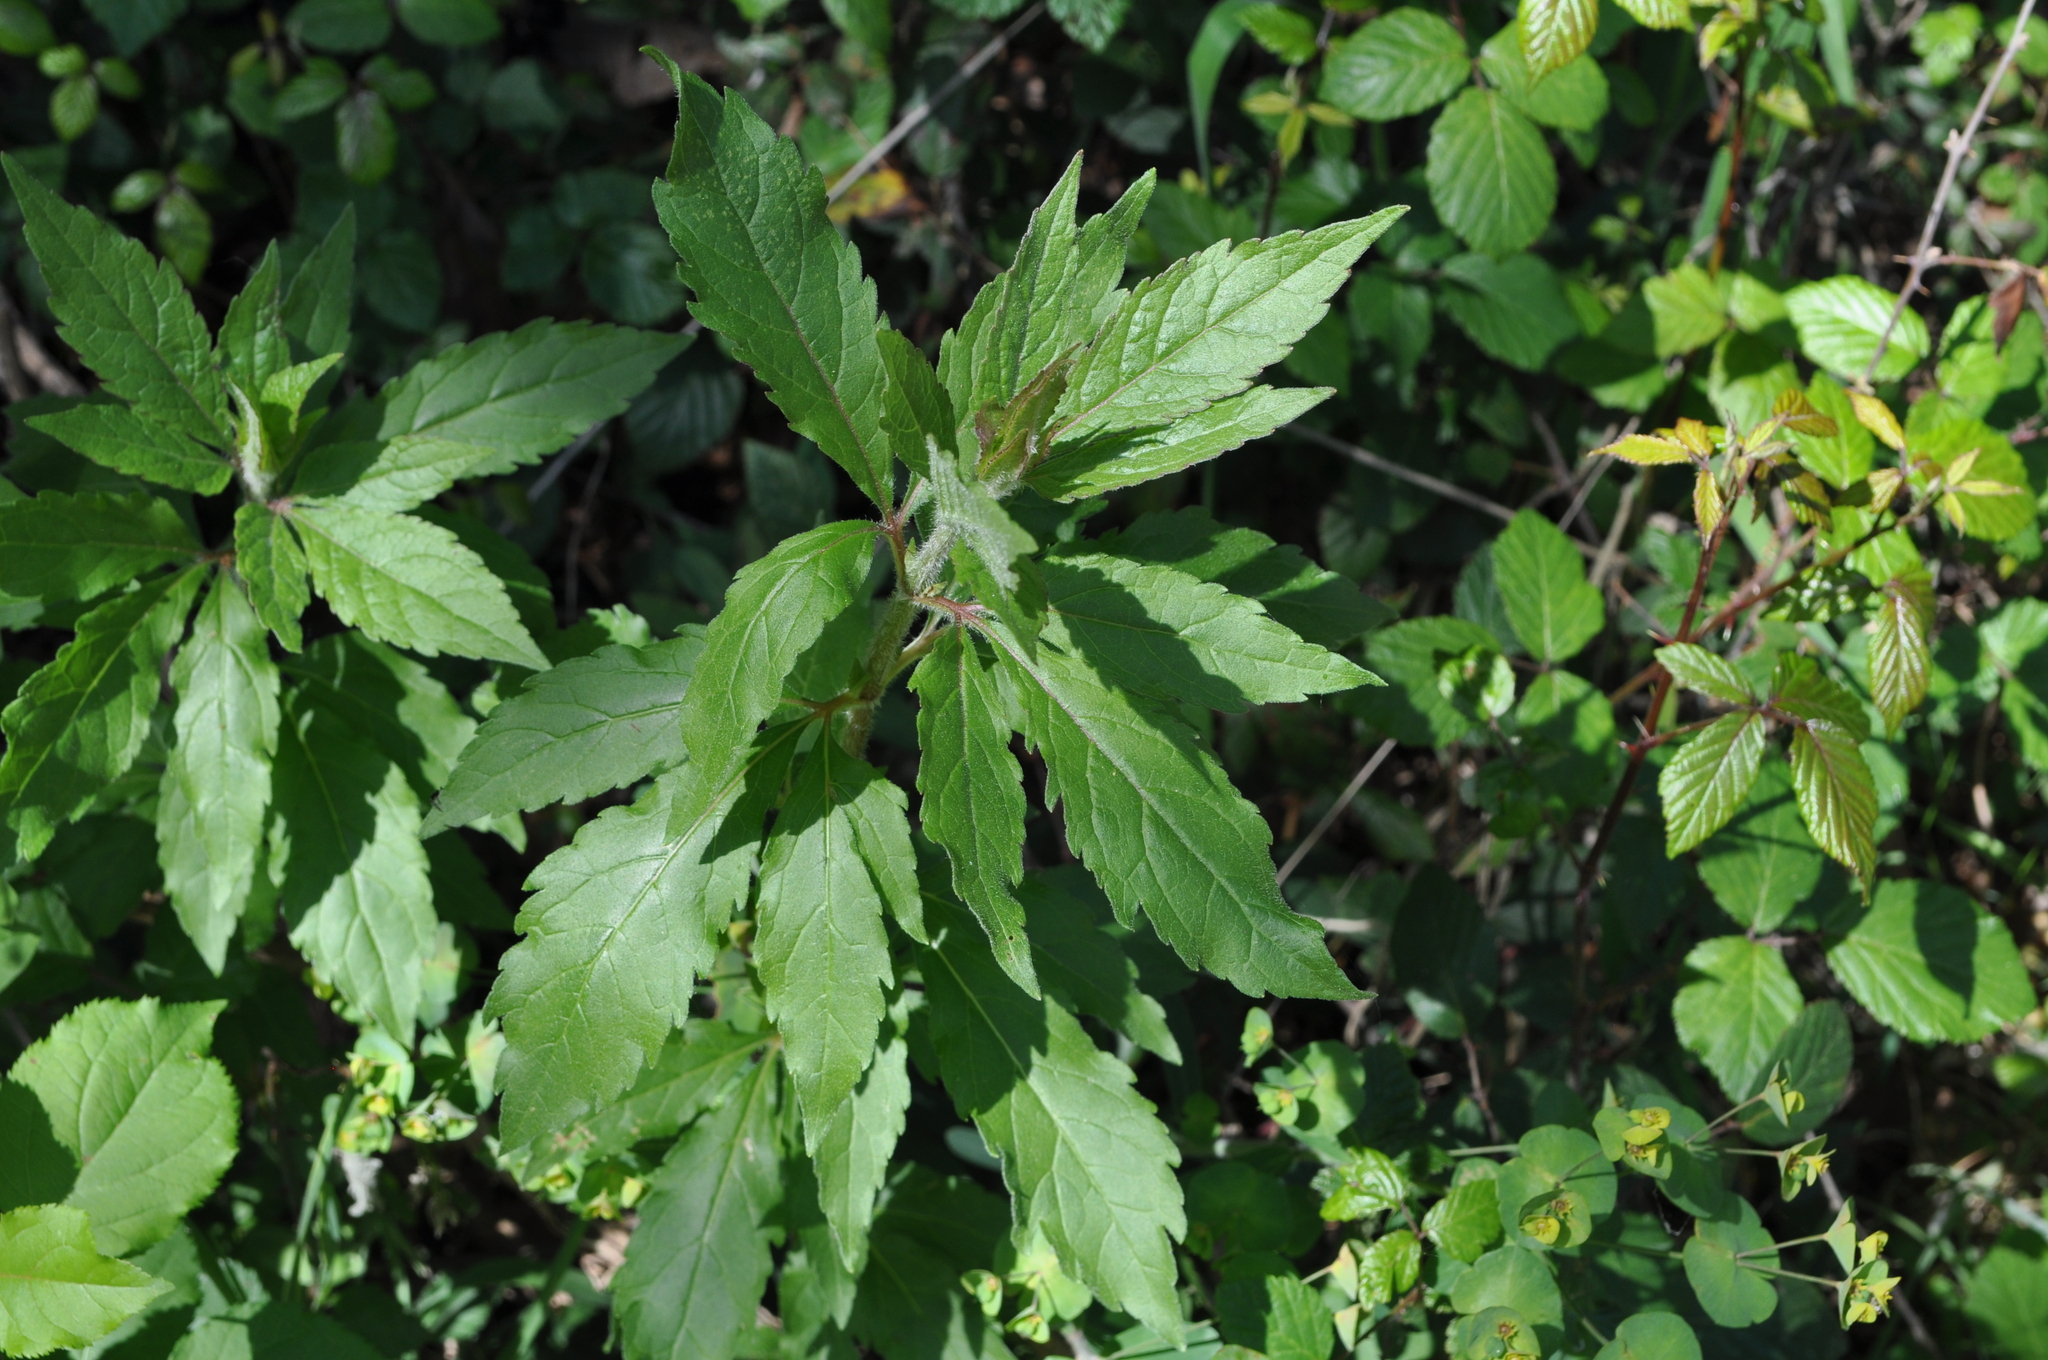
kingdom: Plantae
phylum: Tracheophyta
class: Magnoliopsida
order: Asterales
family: Asteraceae
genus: Eupatorium
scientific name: Eupatorium cannabinum
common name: Hemp-agrimony
